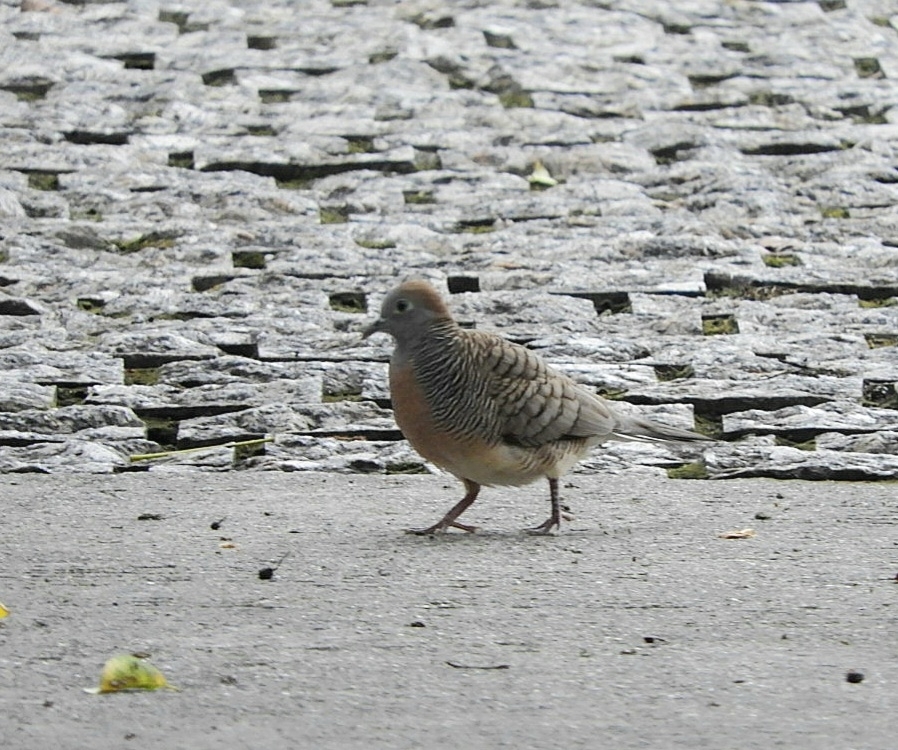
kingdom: Animalia
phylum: Chordata
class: Aves
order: Columbiformes
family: Columbidae
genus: Geopelia
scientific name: Geopelia striata
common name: Zebra dove
